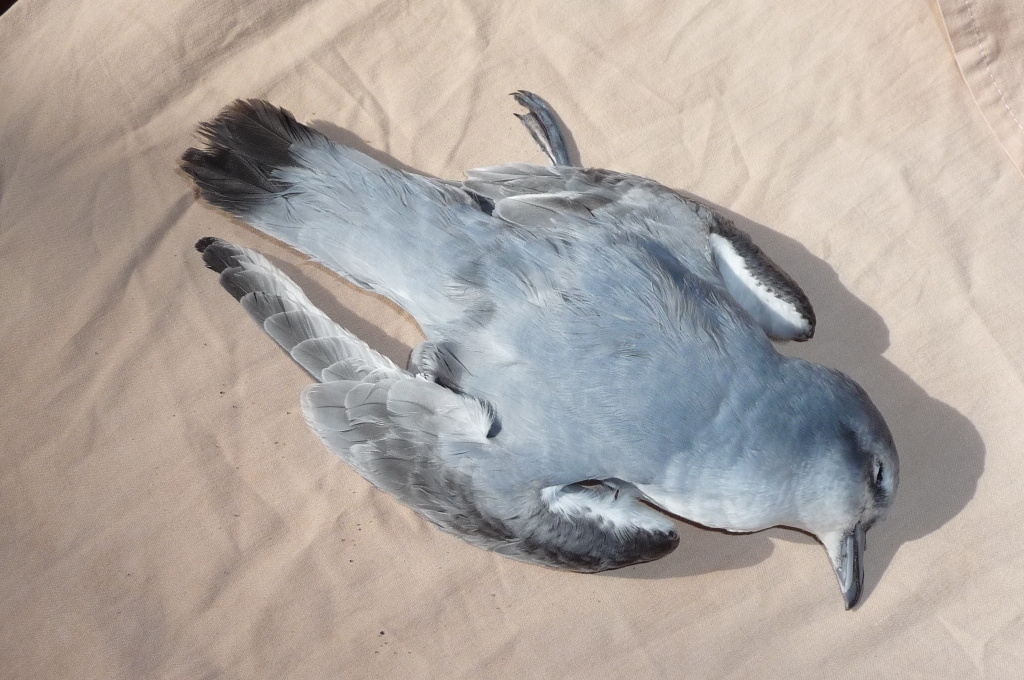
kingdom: Animalia
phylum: Chordata
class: Aves
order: Procellariiformes
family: Procellariidae
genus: Pachyptila
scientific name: Pachyptila turtur
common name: Fairy prion
